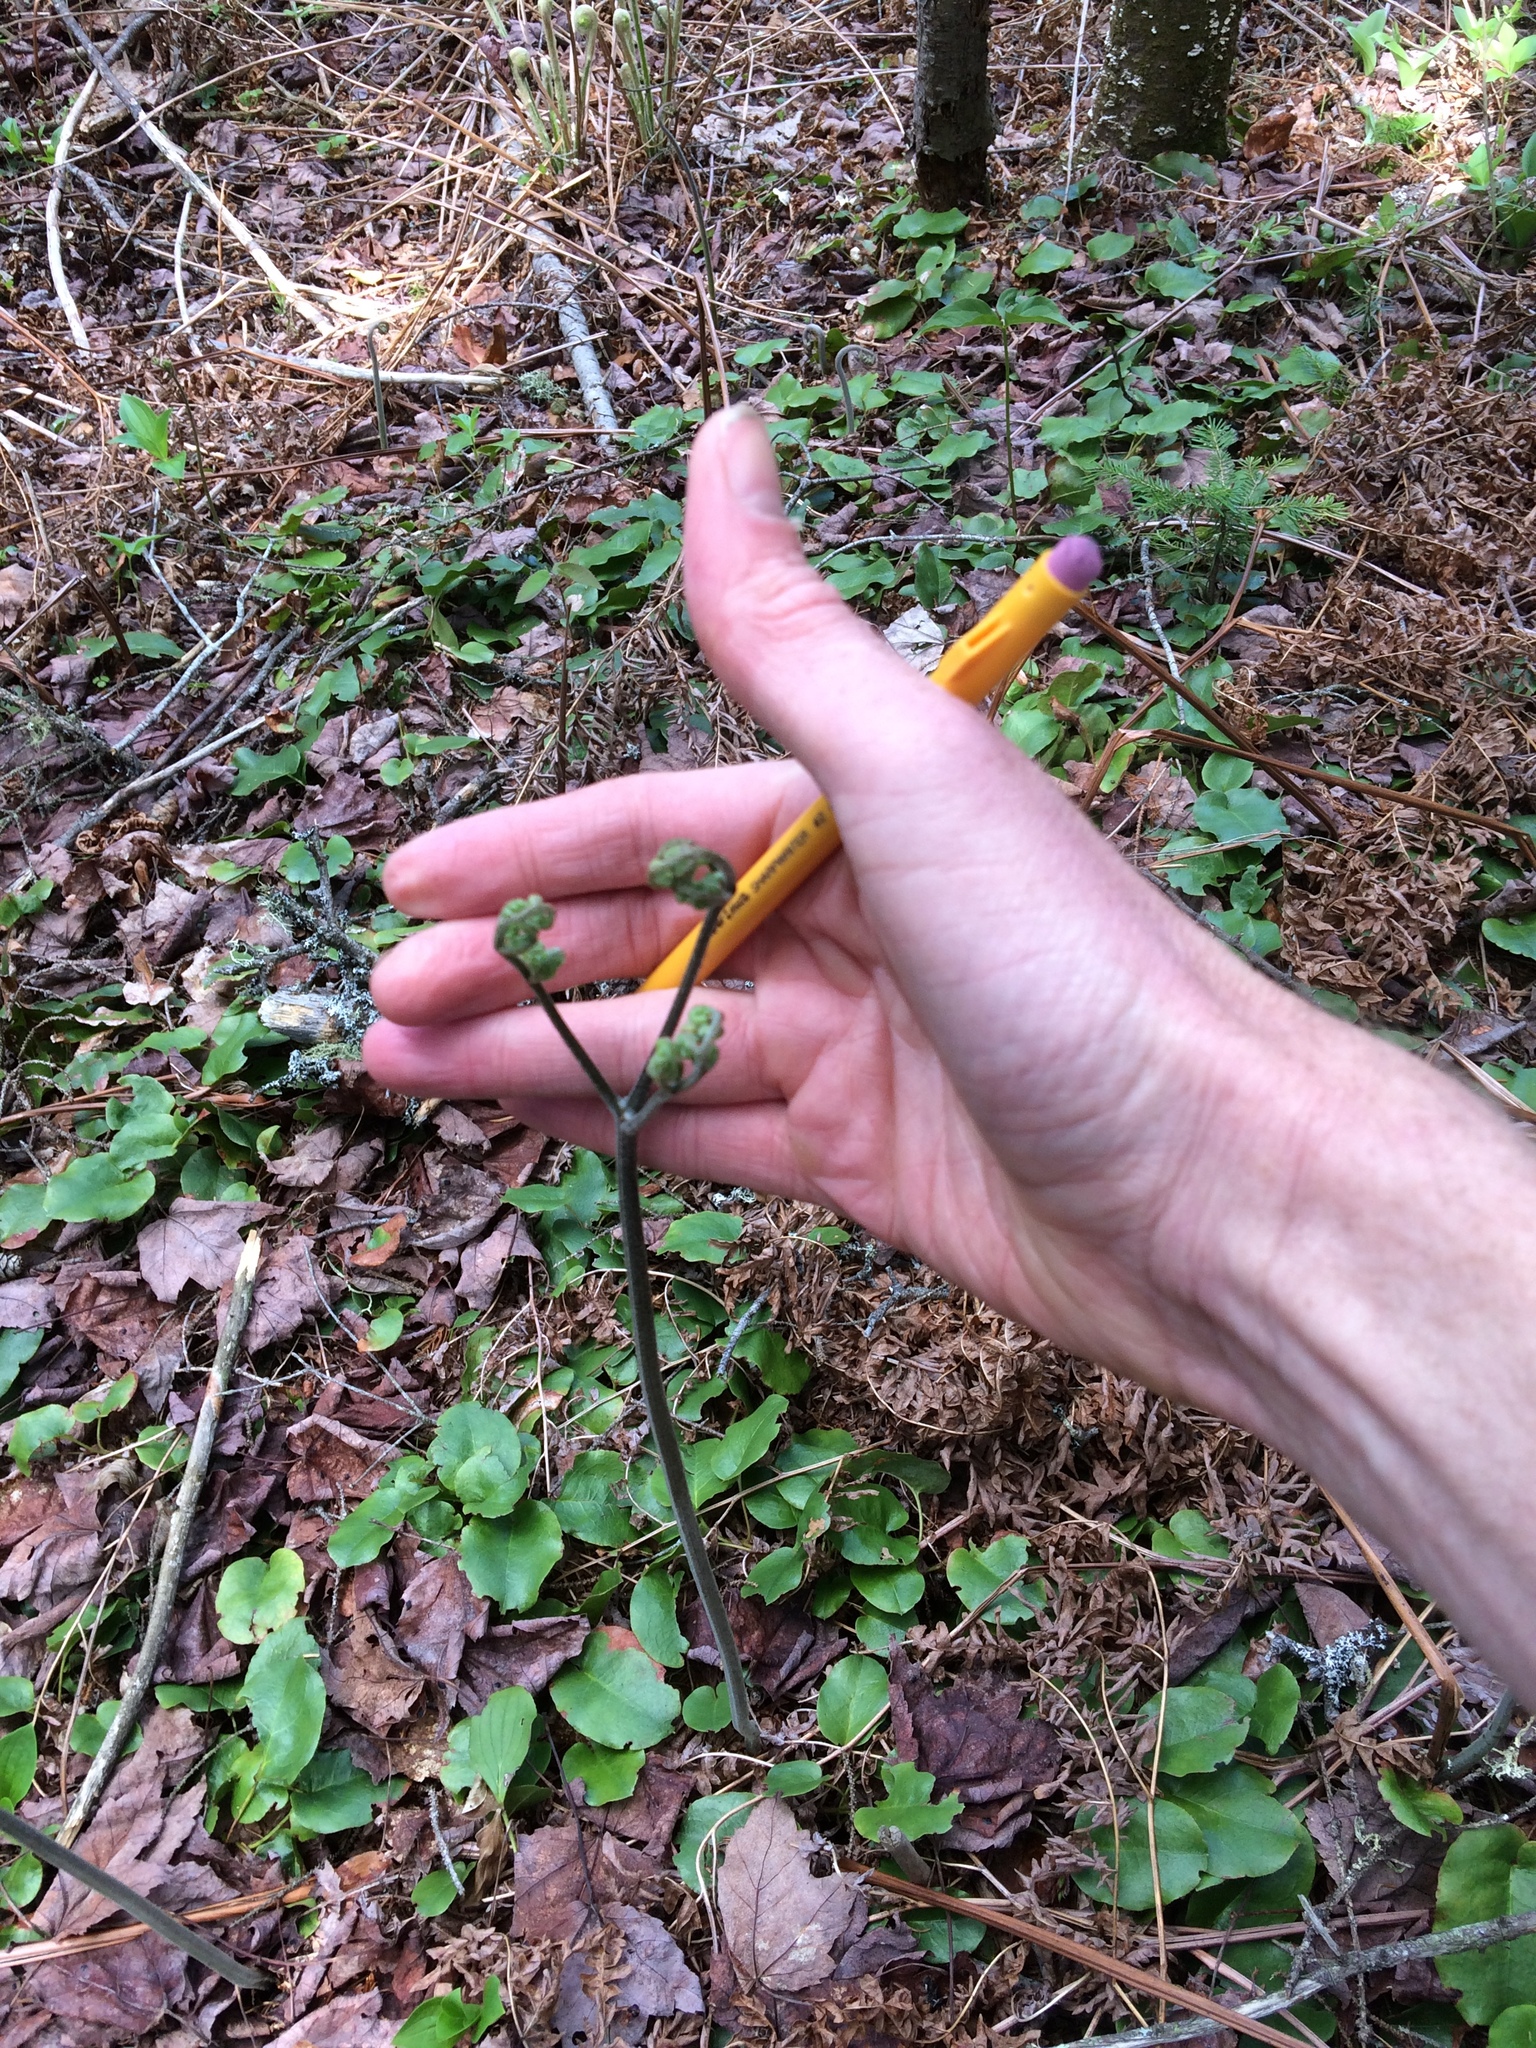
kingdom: Plantae
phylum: Tracheophyta
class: Polypodiopsida
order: Polypodiales
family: Dennstaedtiaceae
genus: Pteridium
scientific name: Pteridium aquilinum
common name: Bracken
